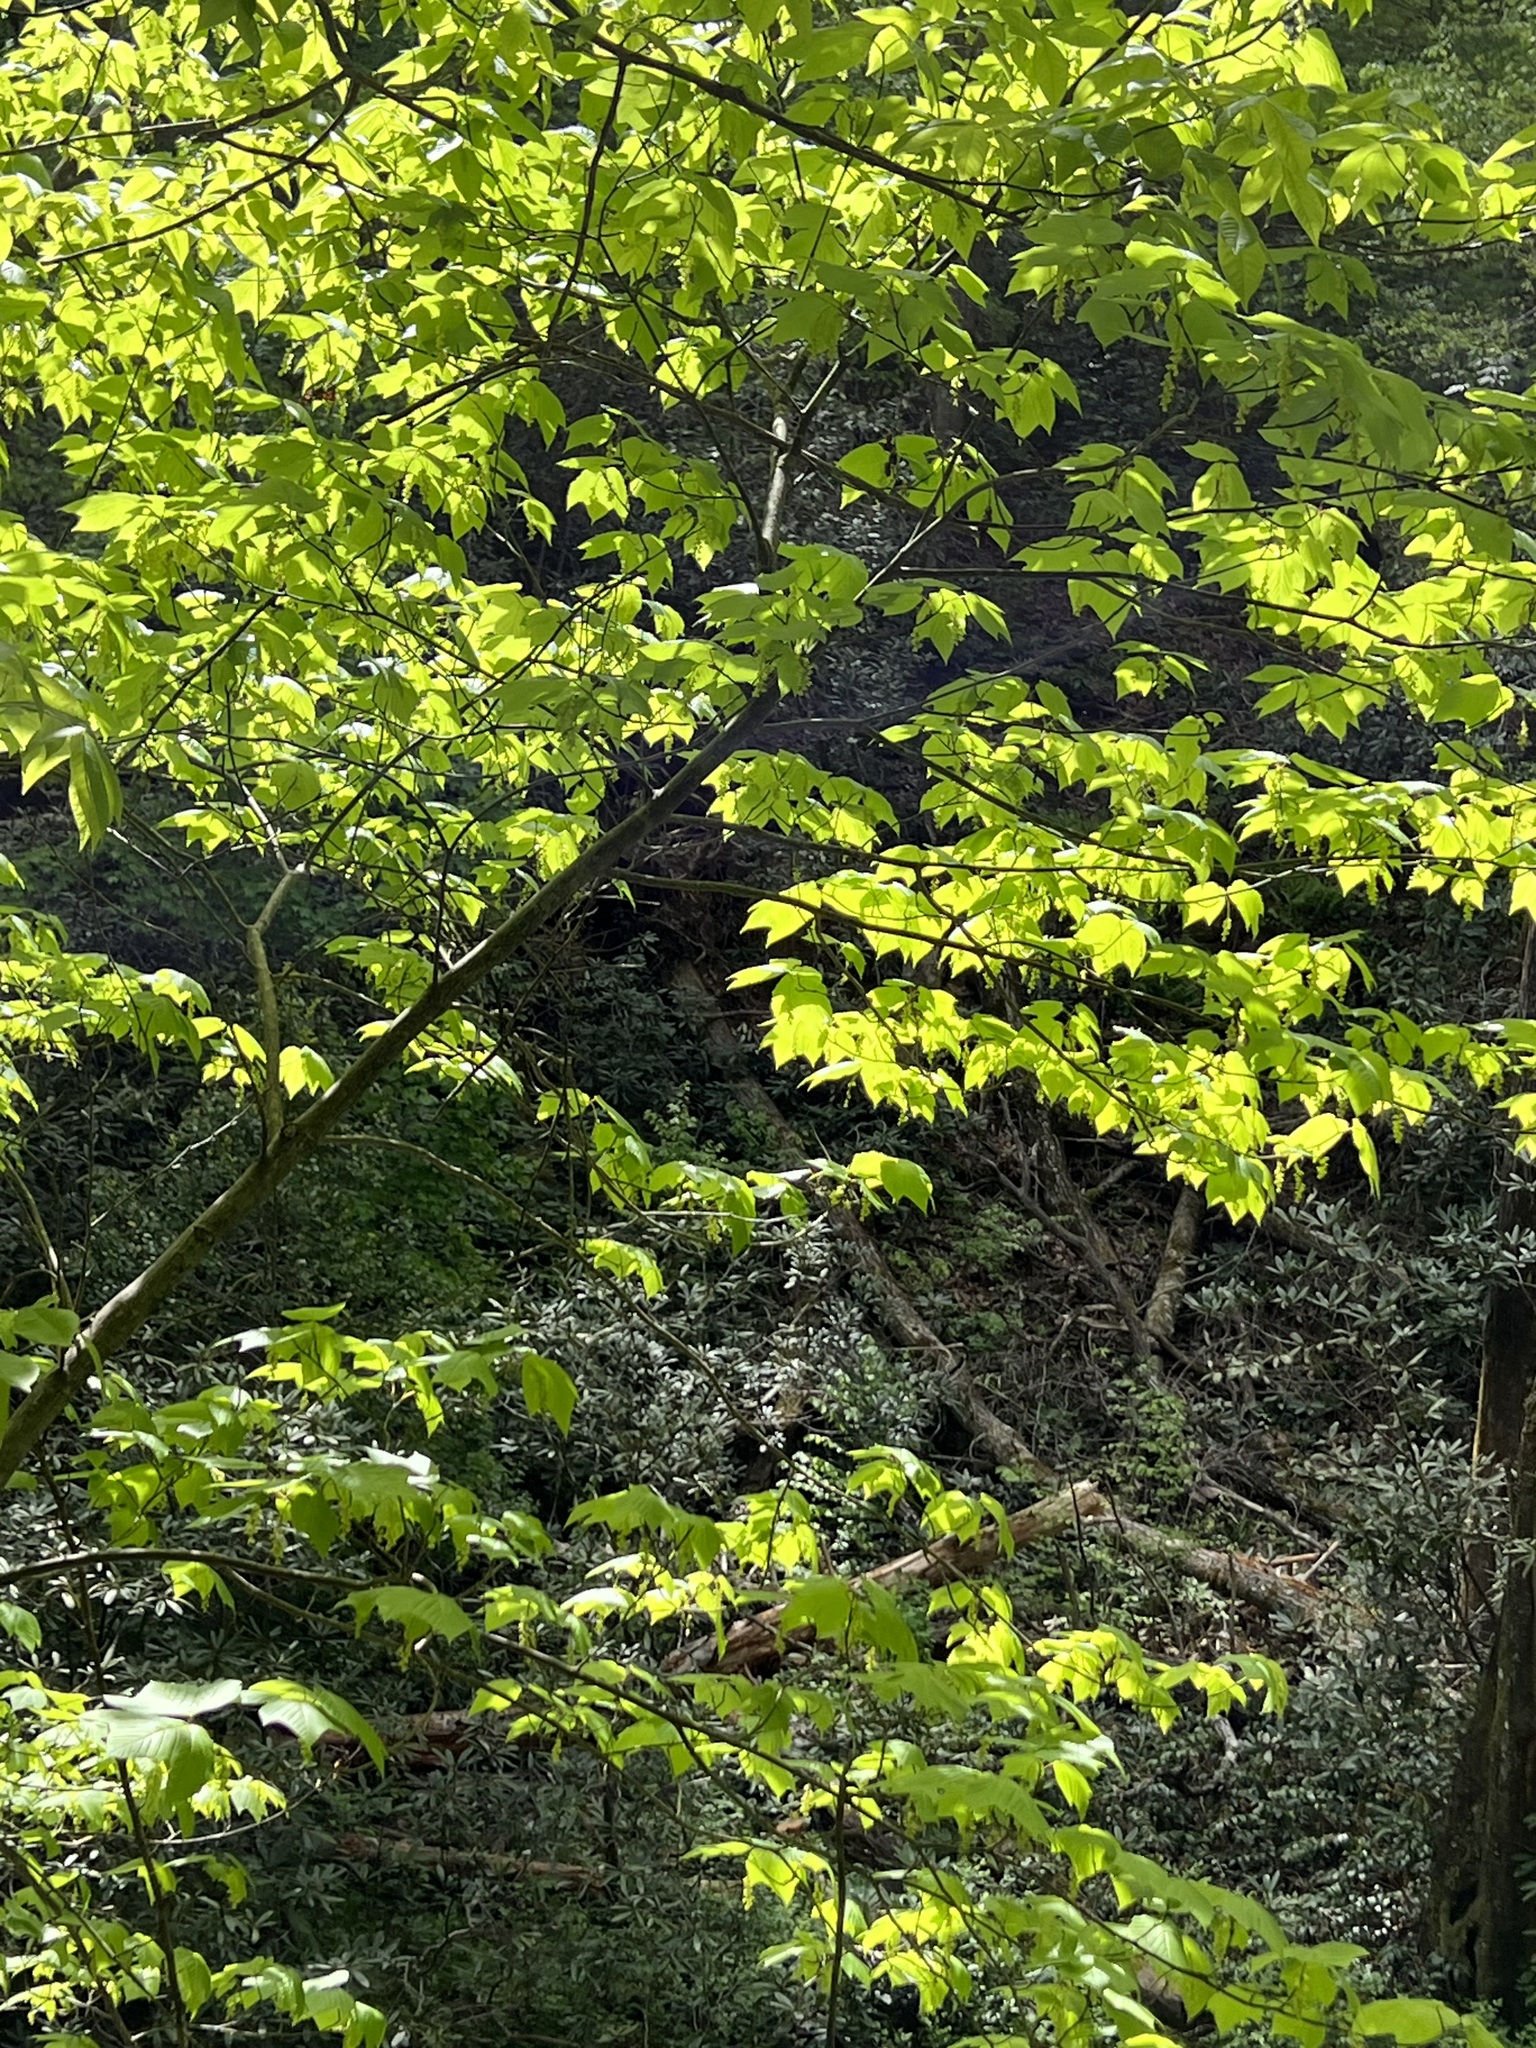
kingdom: Plantae
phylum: Tracheophyta
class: Magnoliopsida
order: Sapindales
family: Sapindaceae
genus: Acer
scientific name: Acer pensylvanicum
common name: Moosewood
